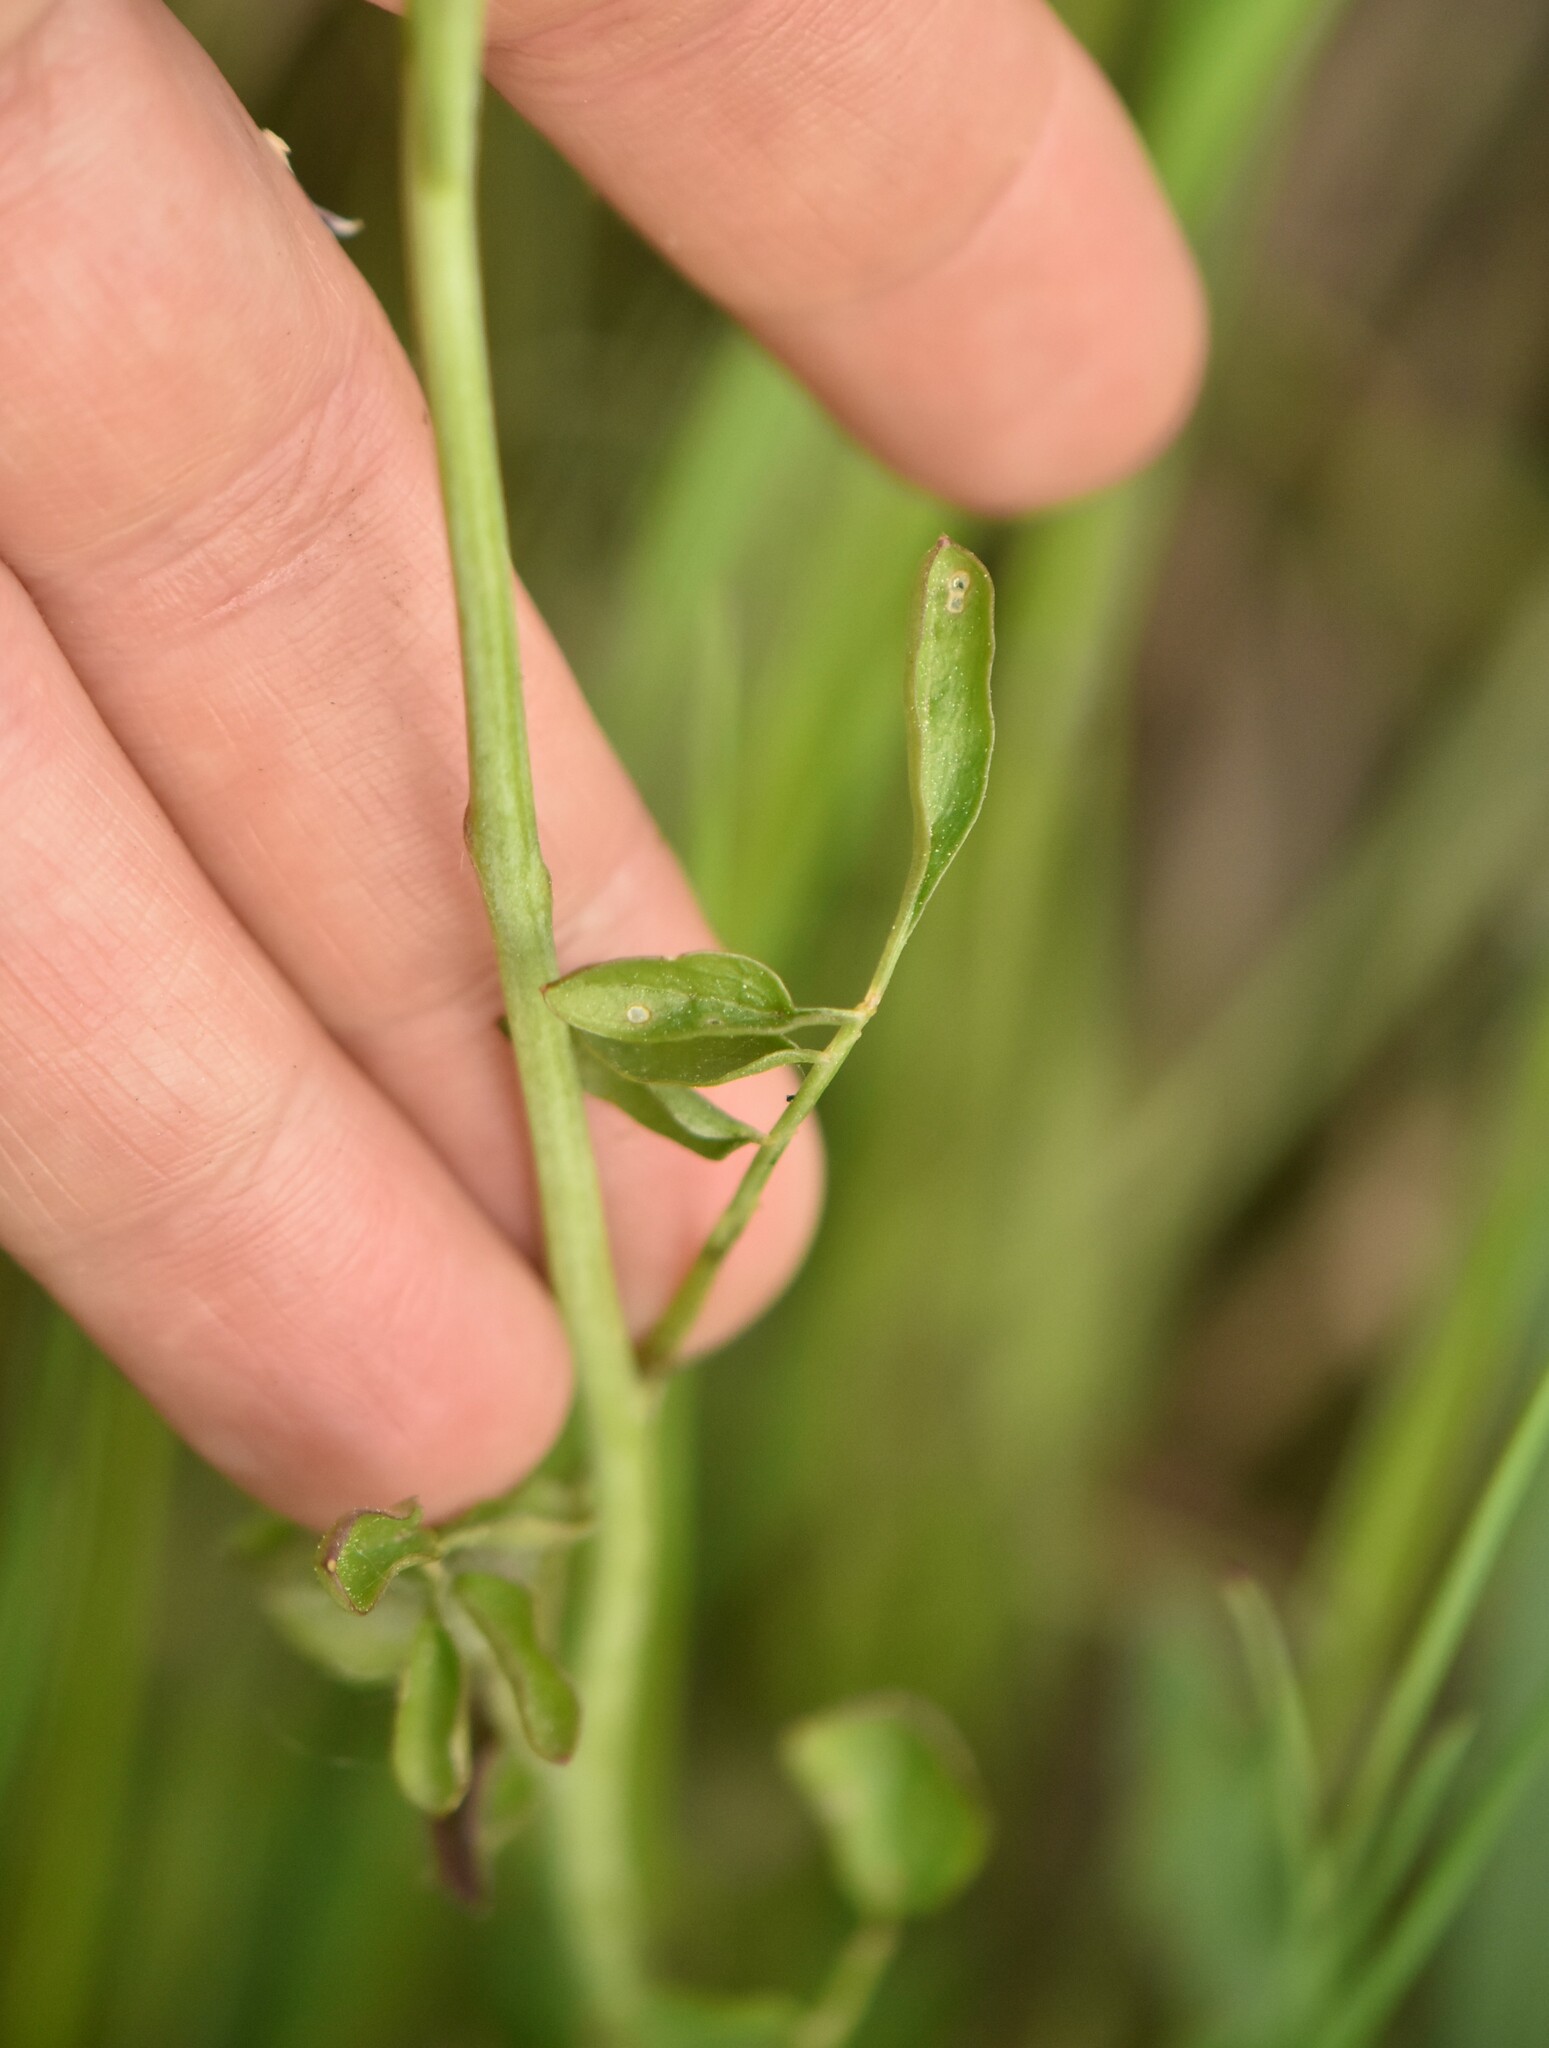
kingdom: Plantae
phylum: Tracheophyta
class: Magnoliopsida
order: Brassicales
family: Brassicaceae
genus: Cardamine
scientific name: Cardamine dentata
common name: Toothed bittercress
